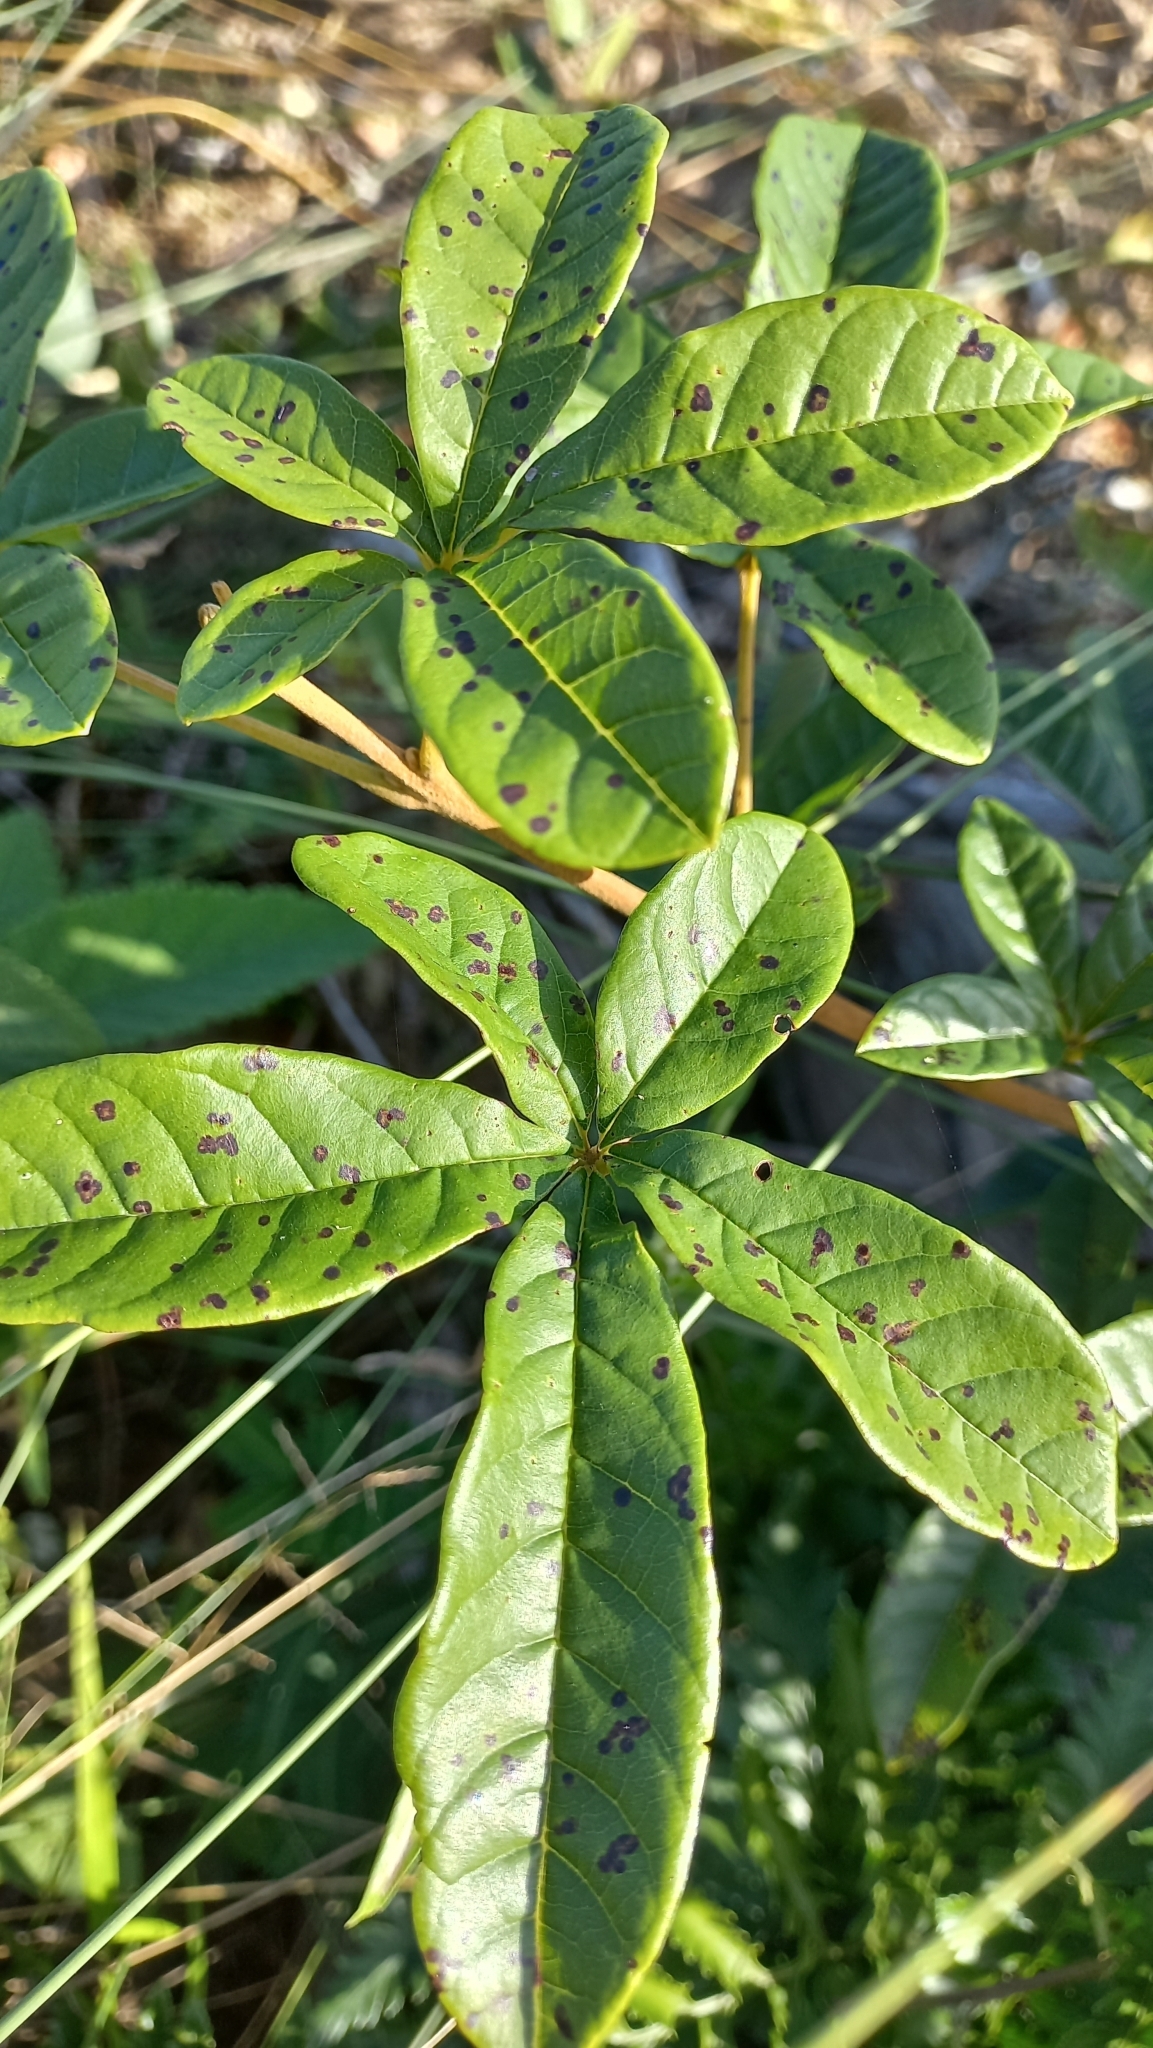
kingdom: Plantae
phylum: Tracheophyta
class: Magnoliopsida
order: Lamiales
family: Lamiaceae
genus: Vitex
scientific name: Vitex megapotamica
